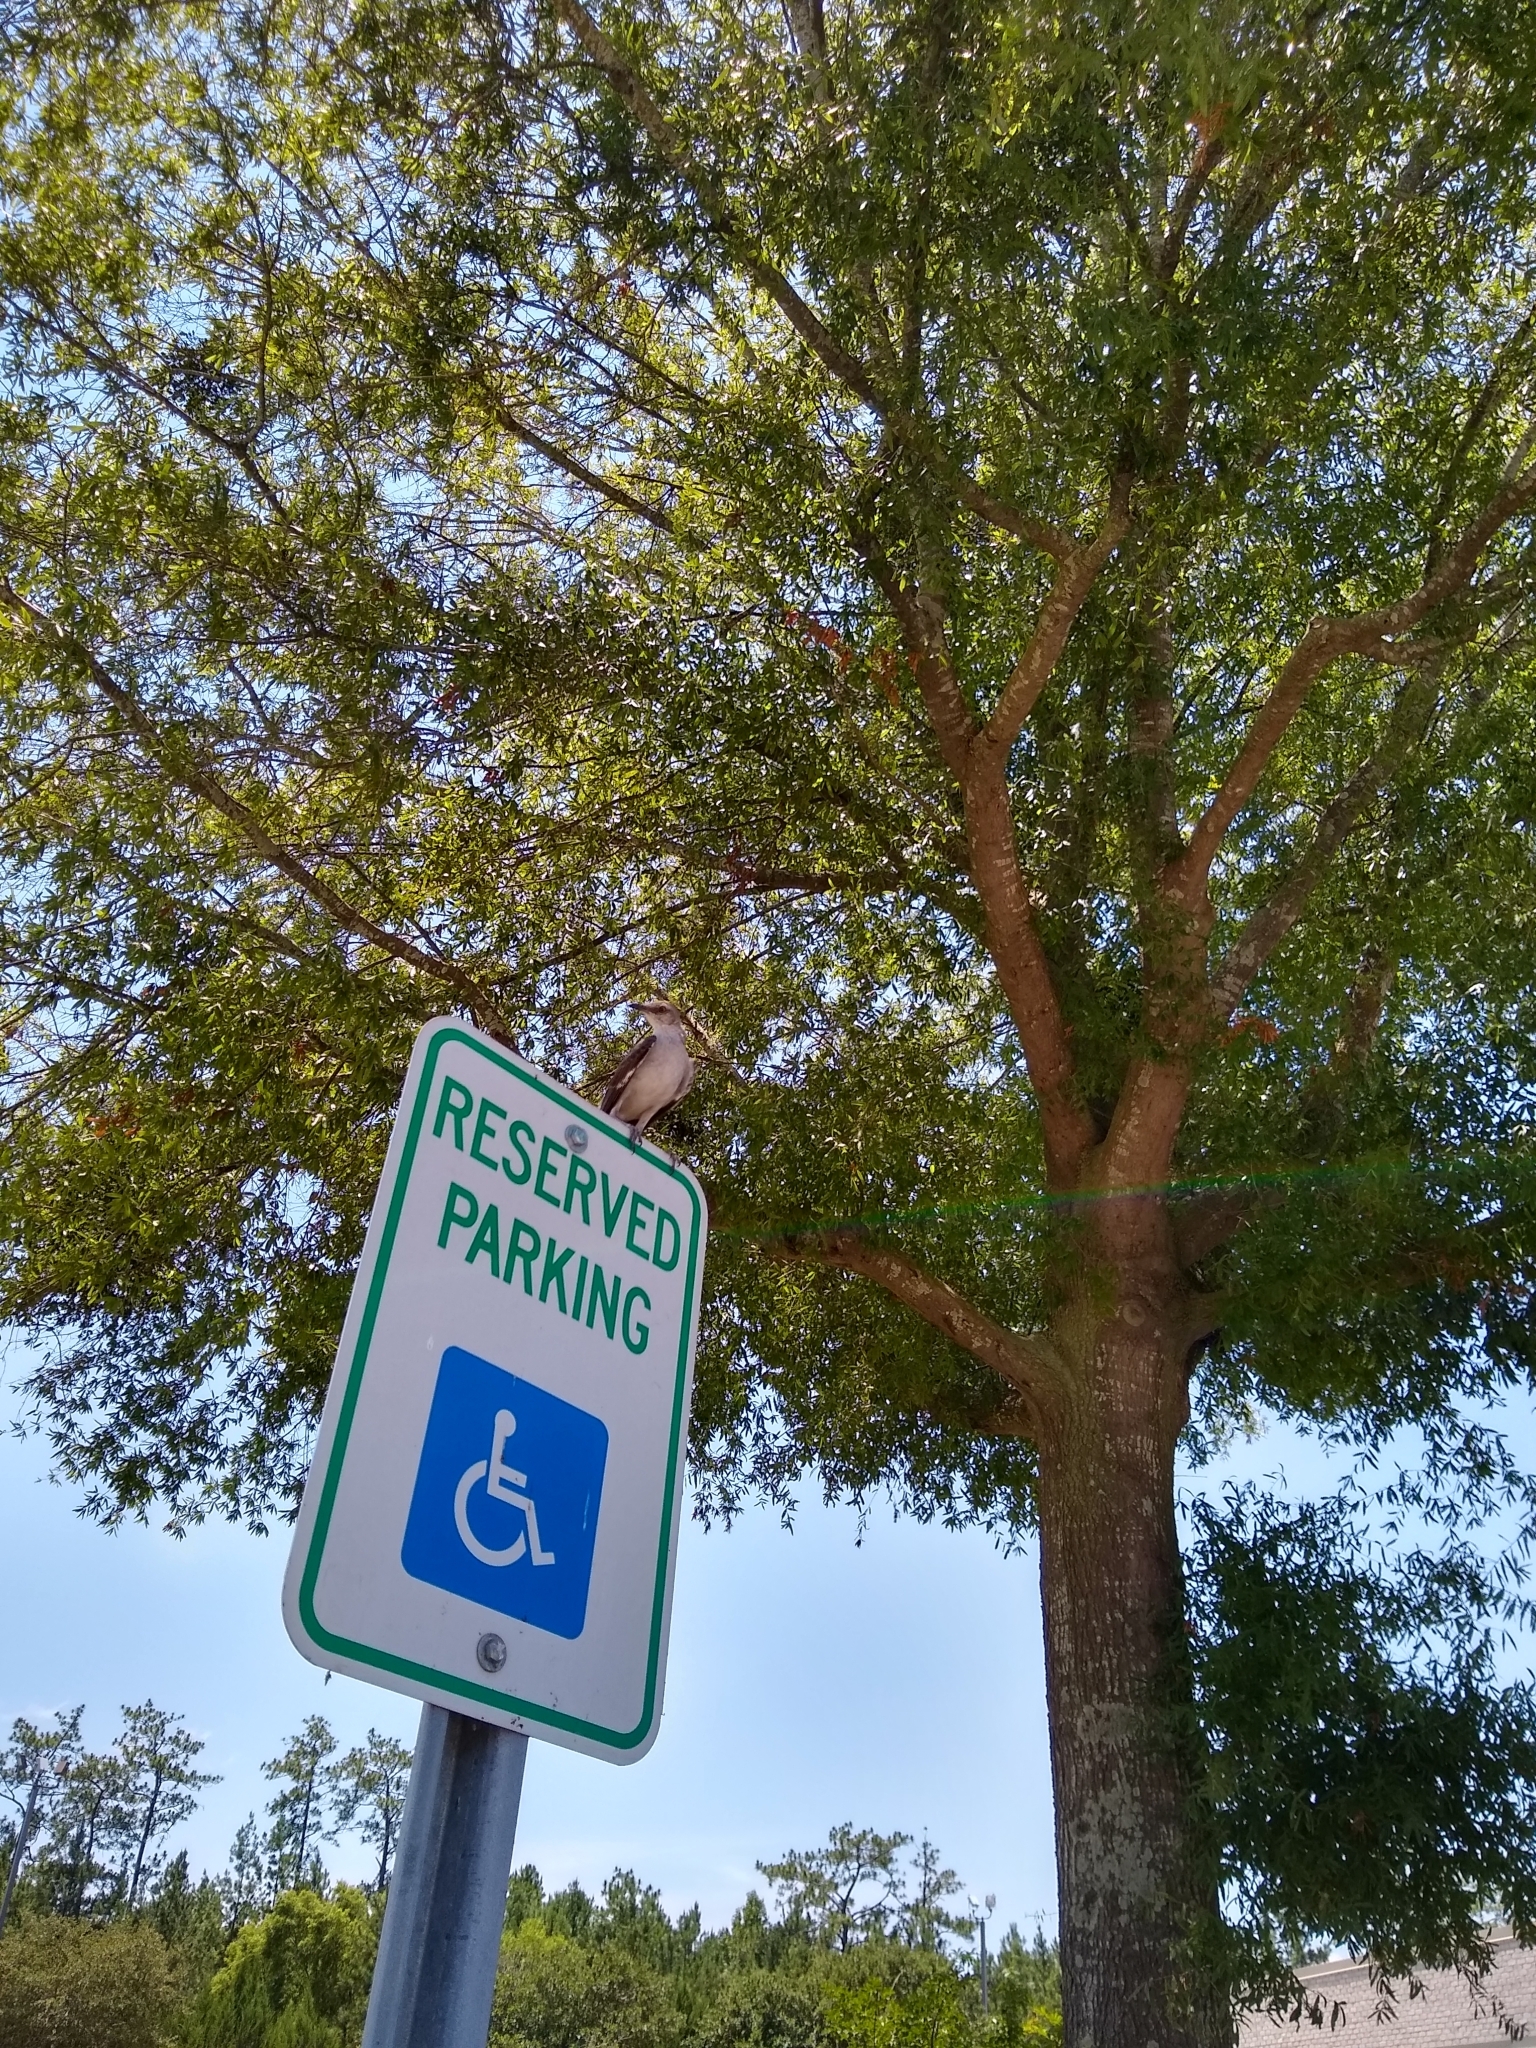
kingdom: Animalia
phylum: Chordata
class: Aves
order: Passeriformes
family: Mimidae
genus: Mimus
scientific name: Mimus polyglottos
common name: Northern mockingbird
